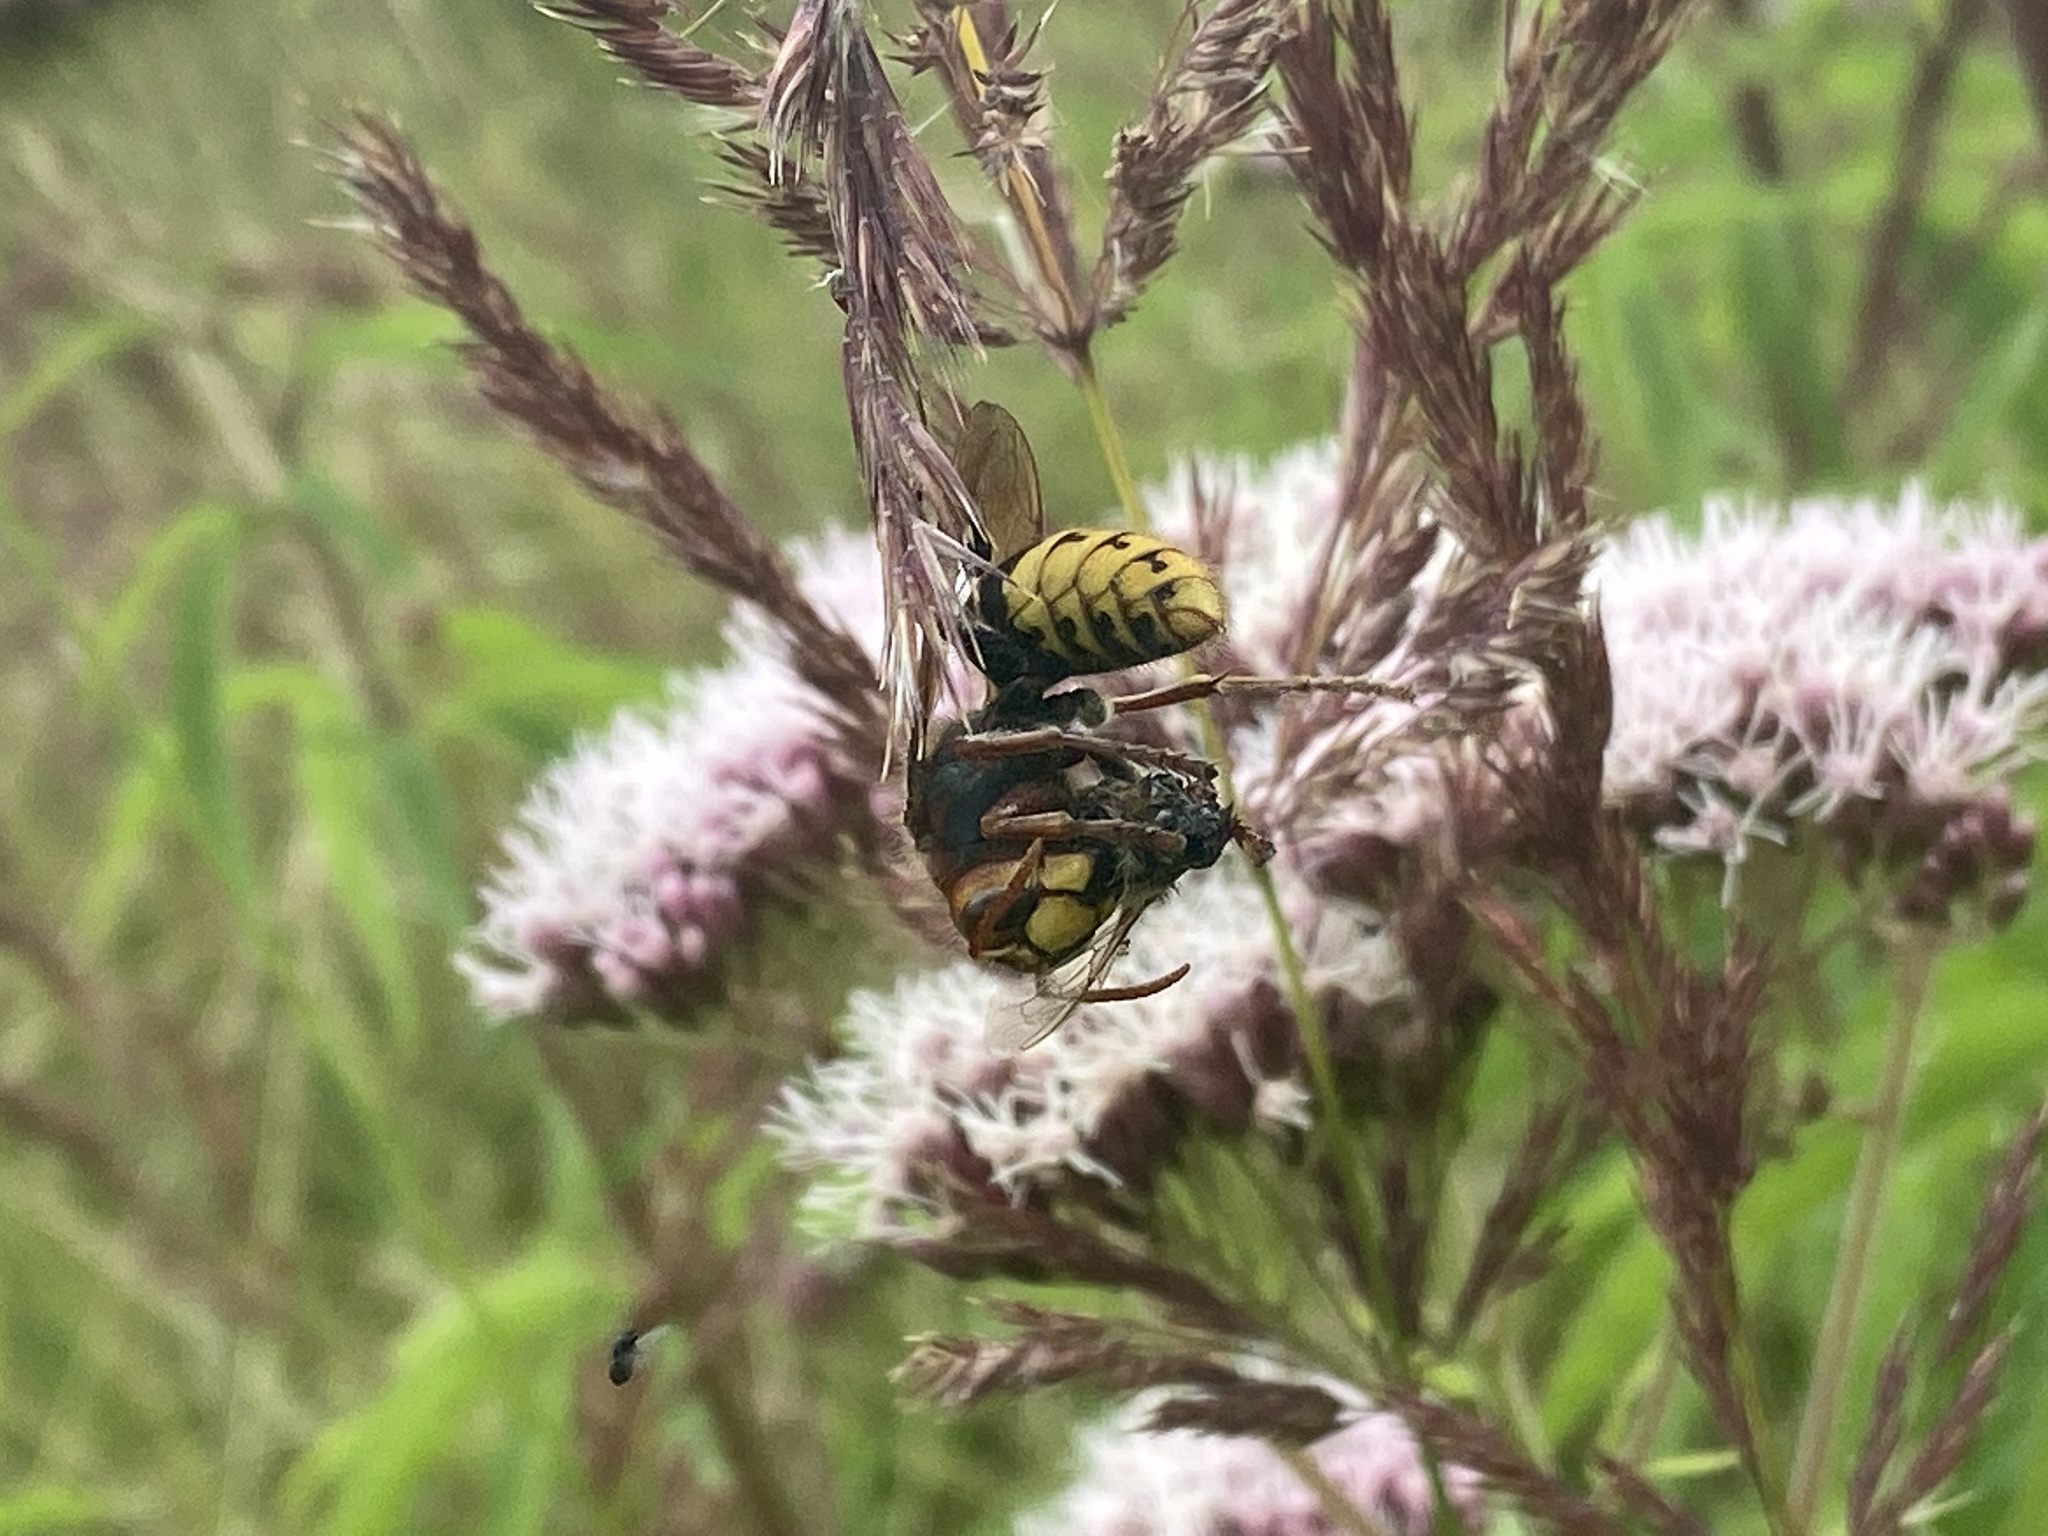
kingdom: Animalia
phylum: Arthropoda
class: Insecta
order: Hymenoptera
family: Vespidae
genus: Vespa
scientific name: Vespa crabro
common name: Hornet
